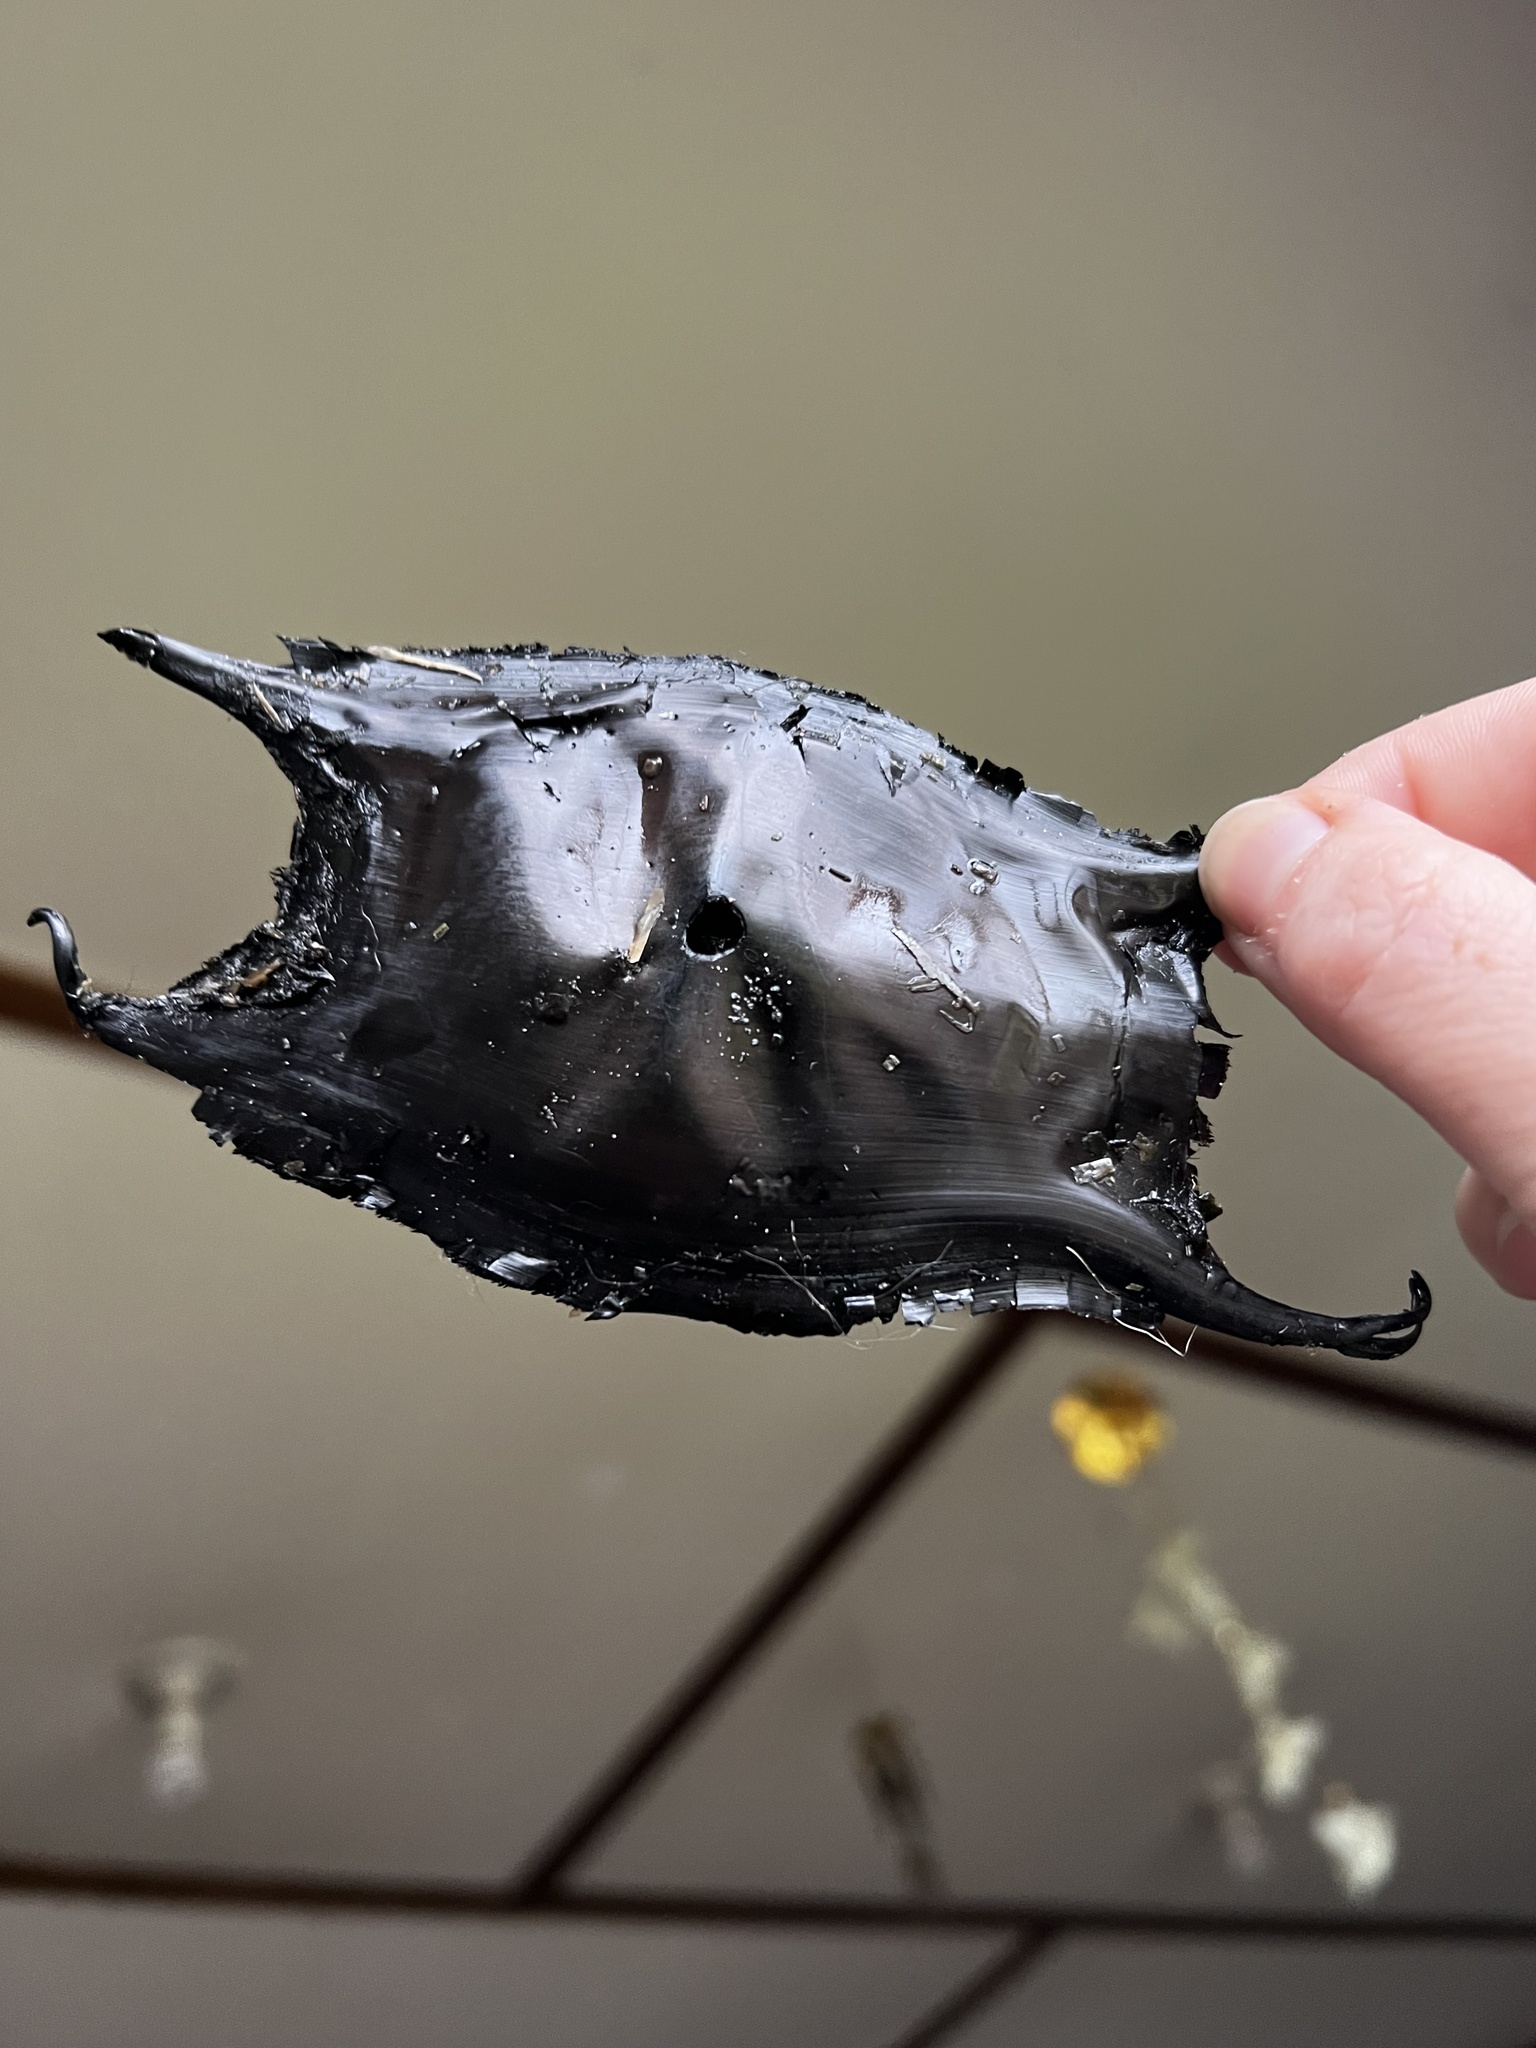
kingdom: Animalia
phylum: Chordata
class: Elasmobranchii
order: Rajiformes
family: Rajidae
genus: Caliraja
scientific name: Caliraja
